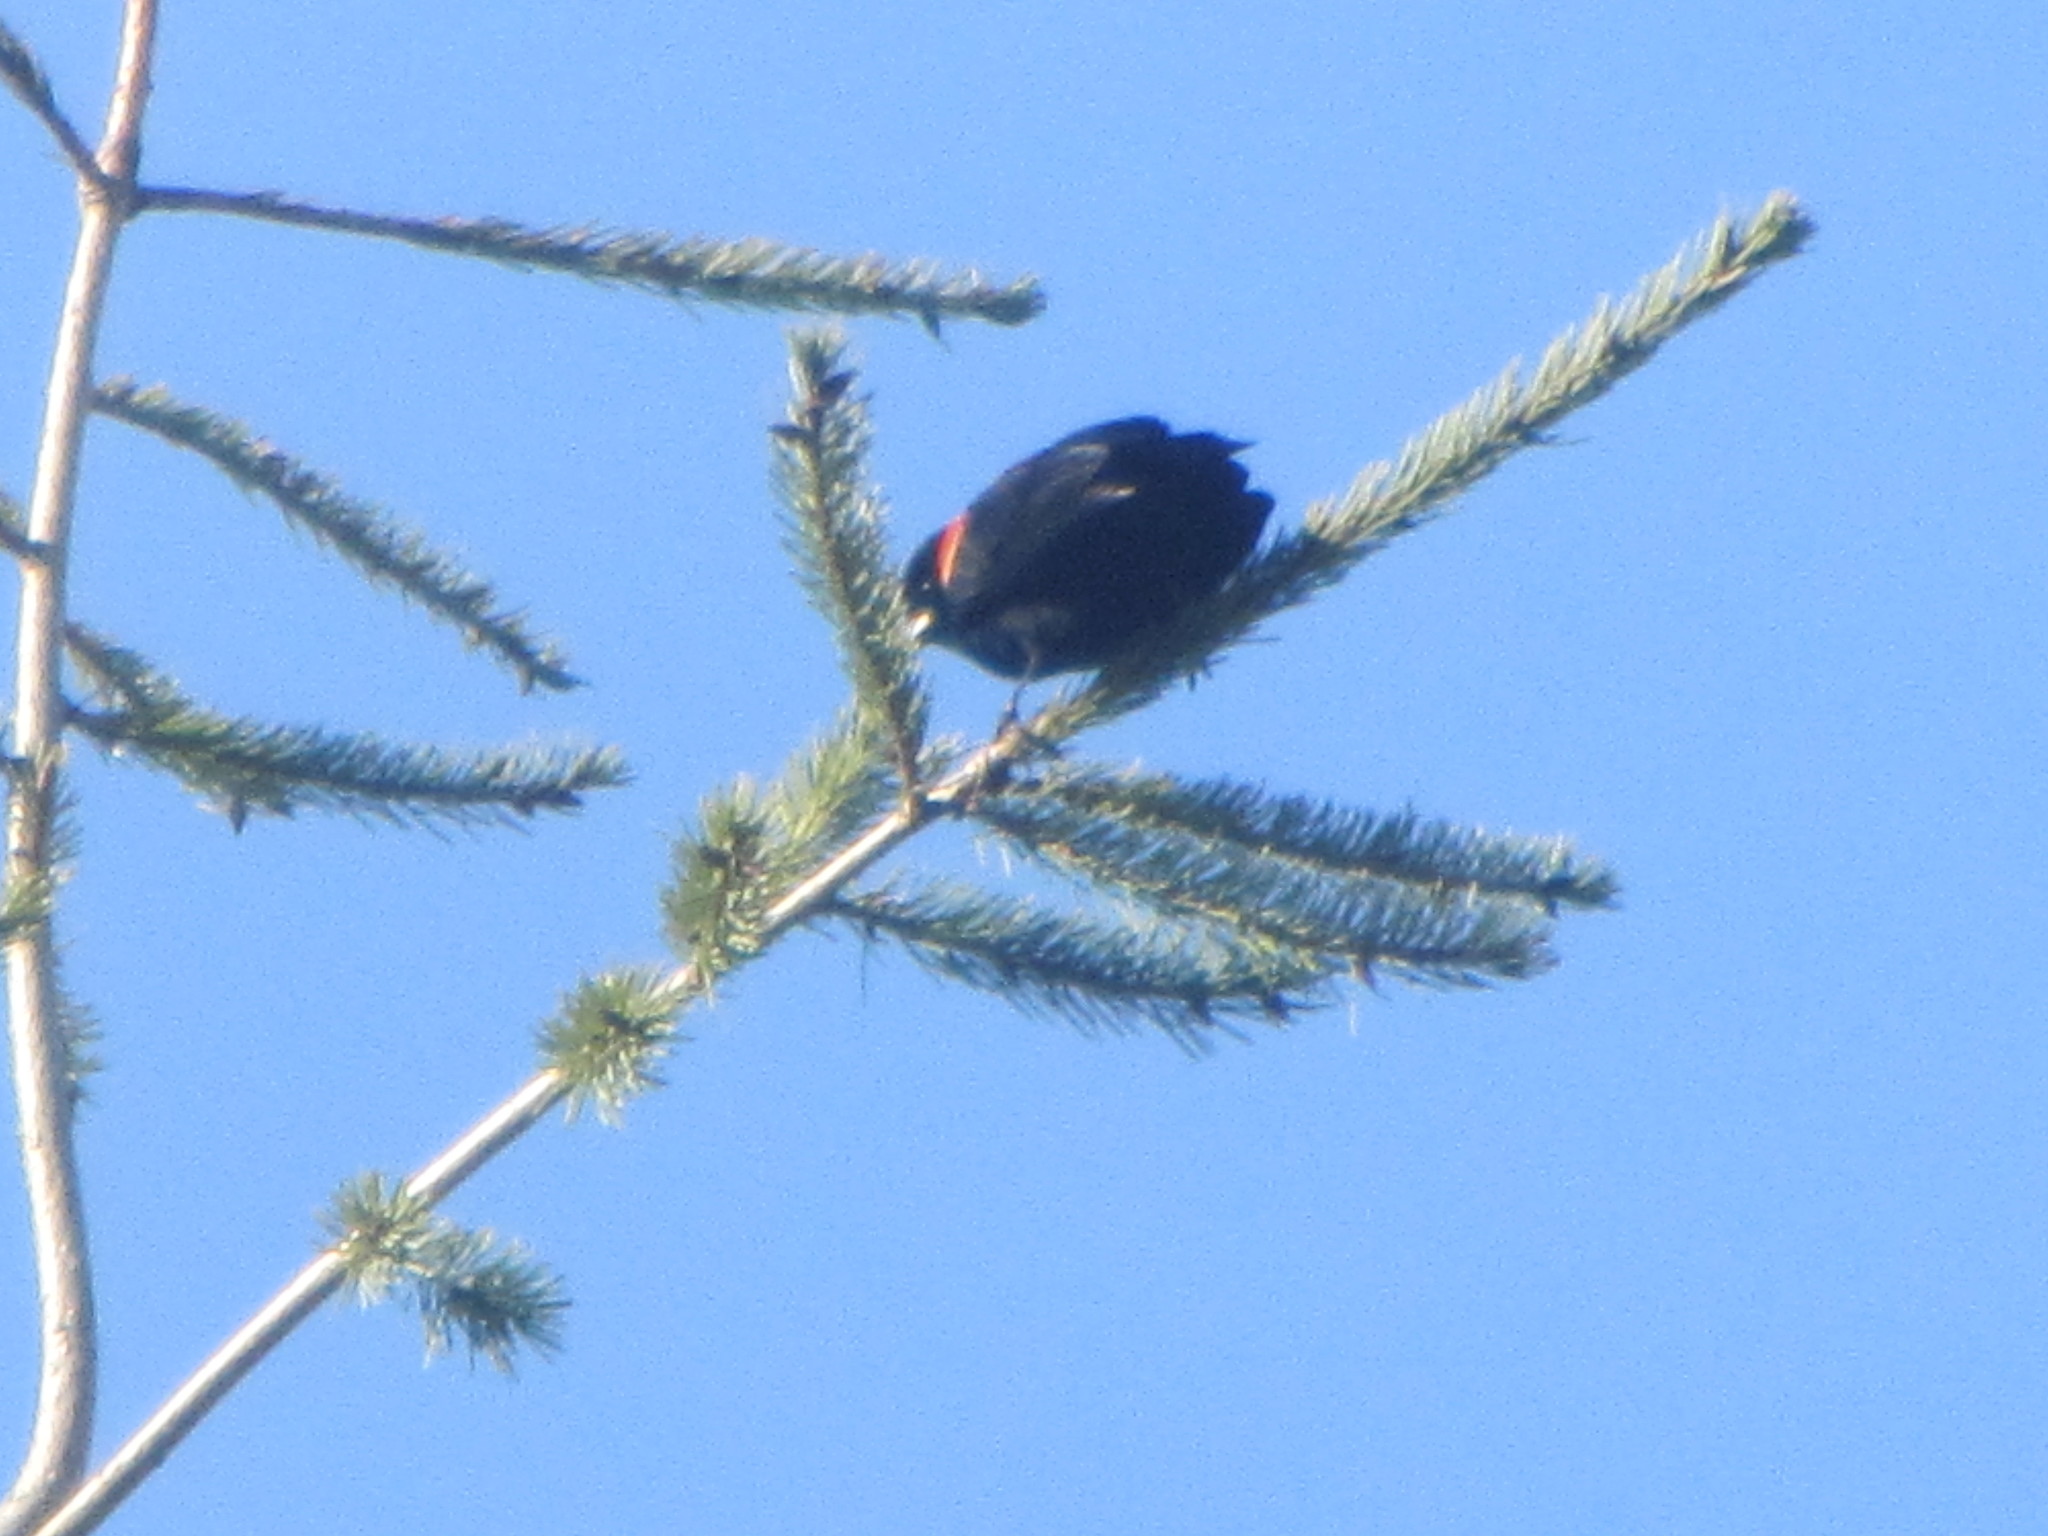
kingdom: Animalia
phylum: Chordata
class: Aves
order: Passeriformes
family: Icteridae
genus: Agelaius
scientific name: Agelaius phoeniceus
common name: Red-winged blackbird
